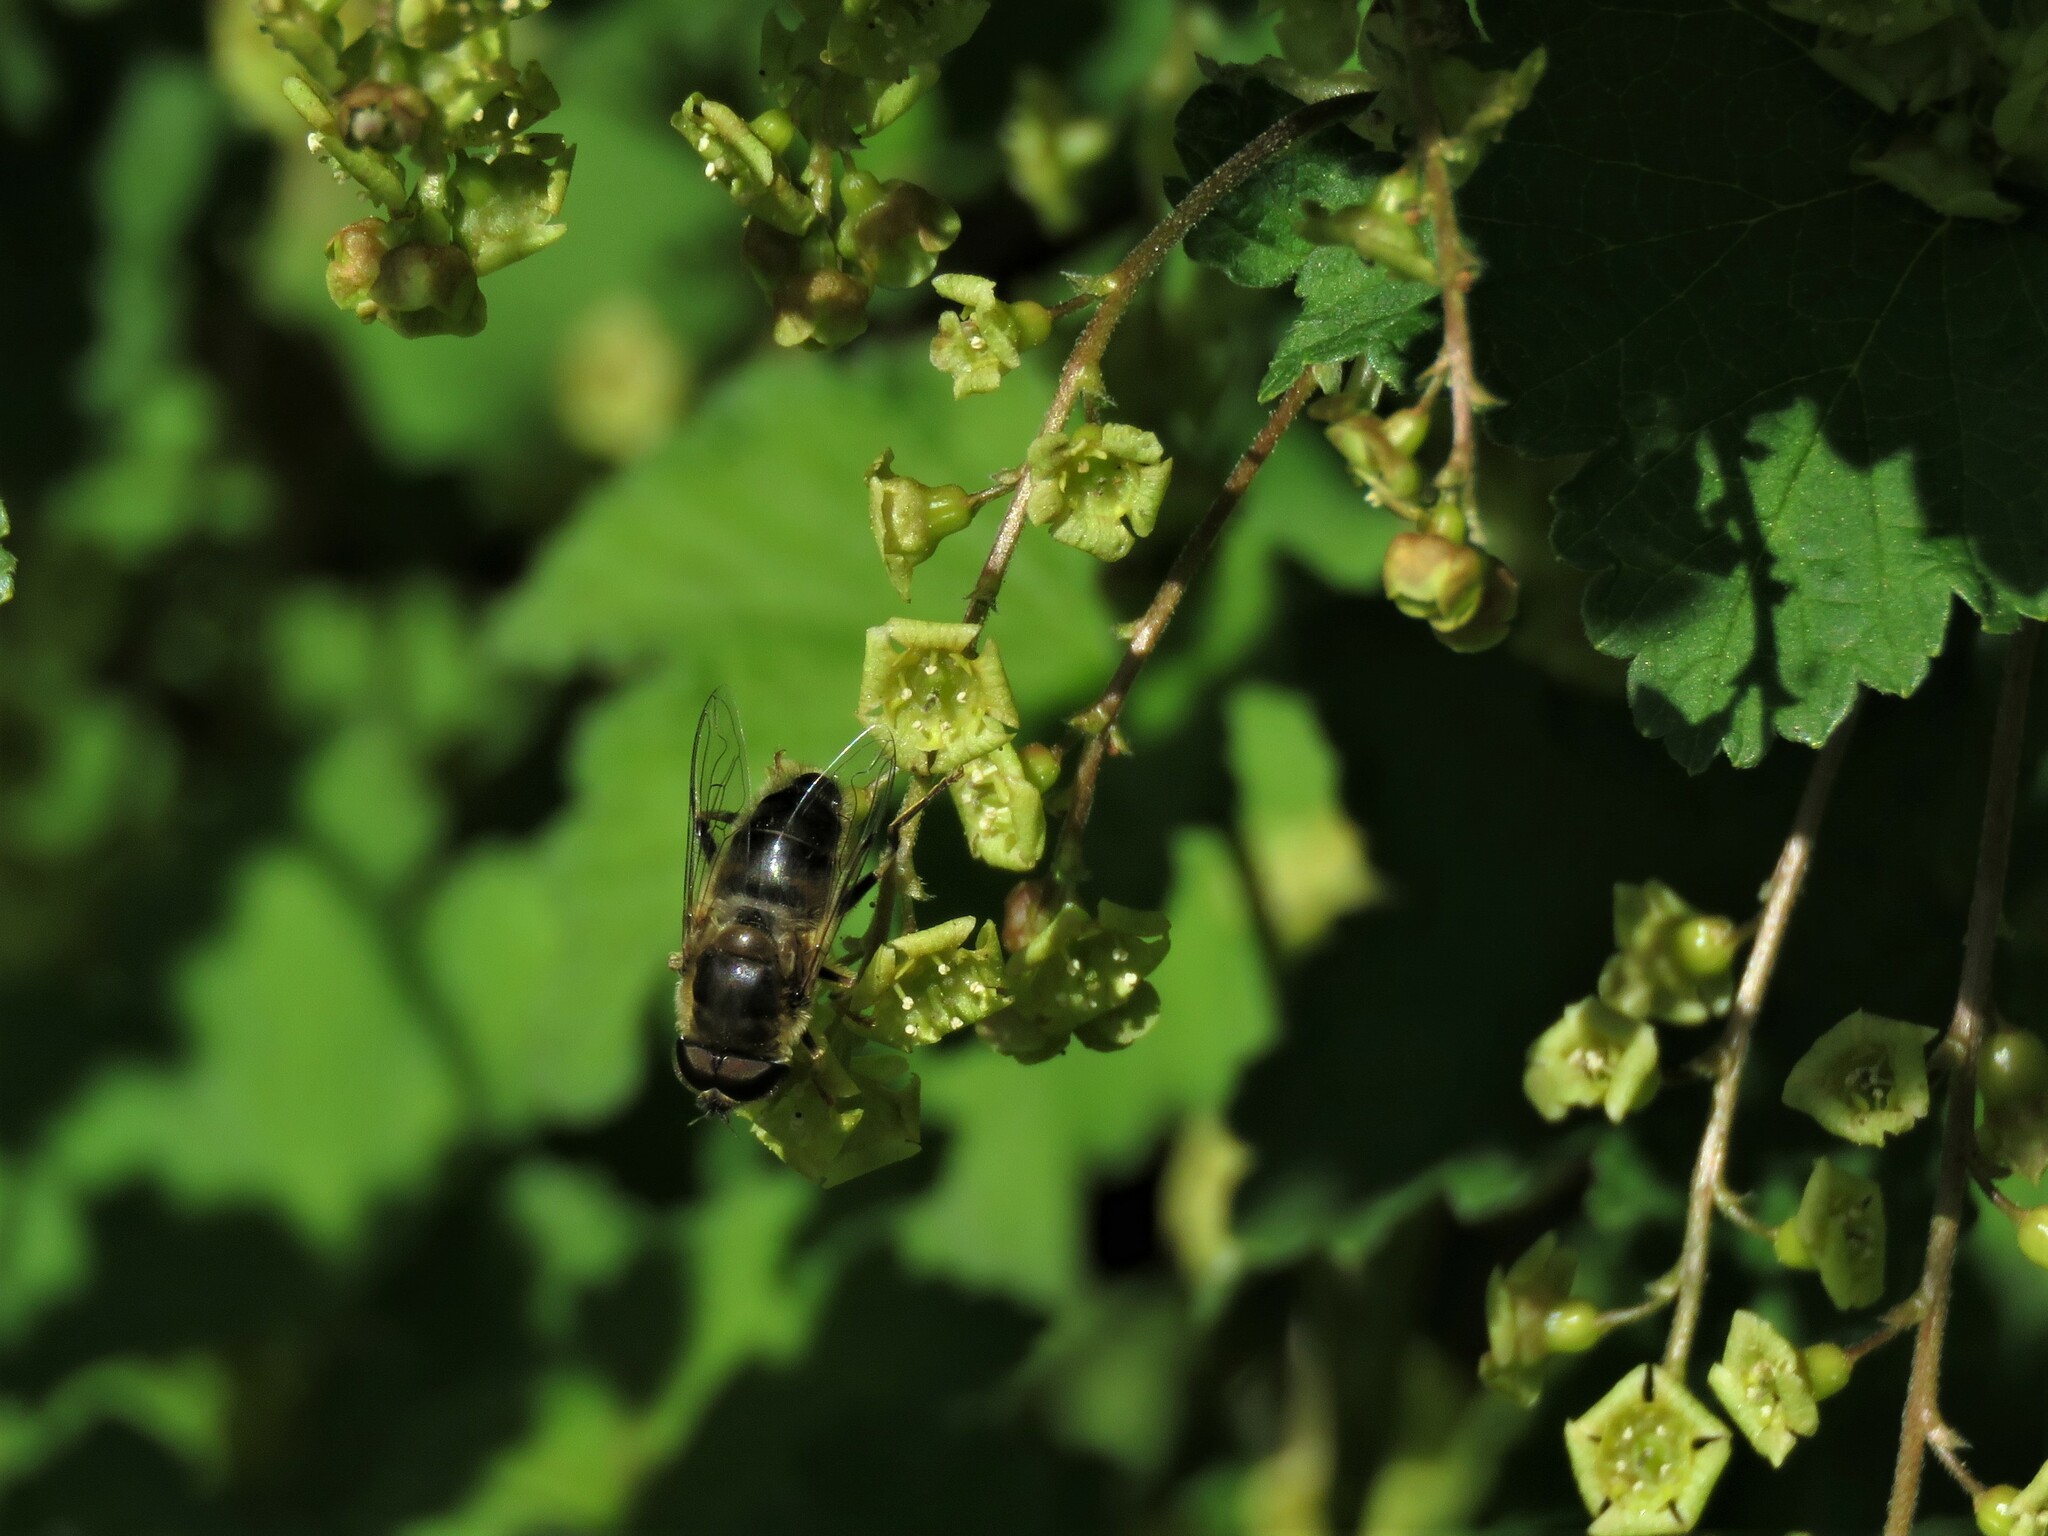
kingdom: Animalia
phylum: Arthropoda
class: Insecta
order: Diptera
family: Syrphidae
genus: Eristalis
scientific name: Eristalis pertinax
